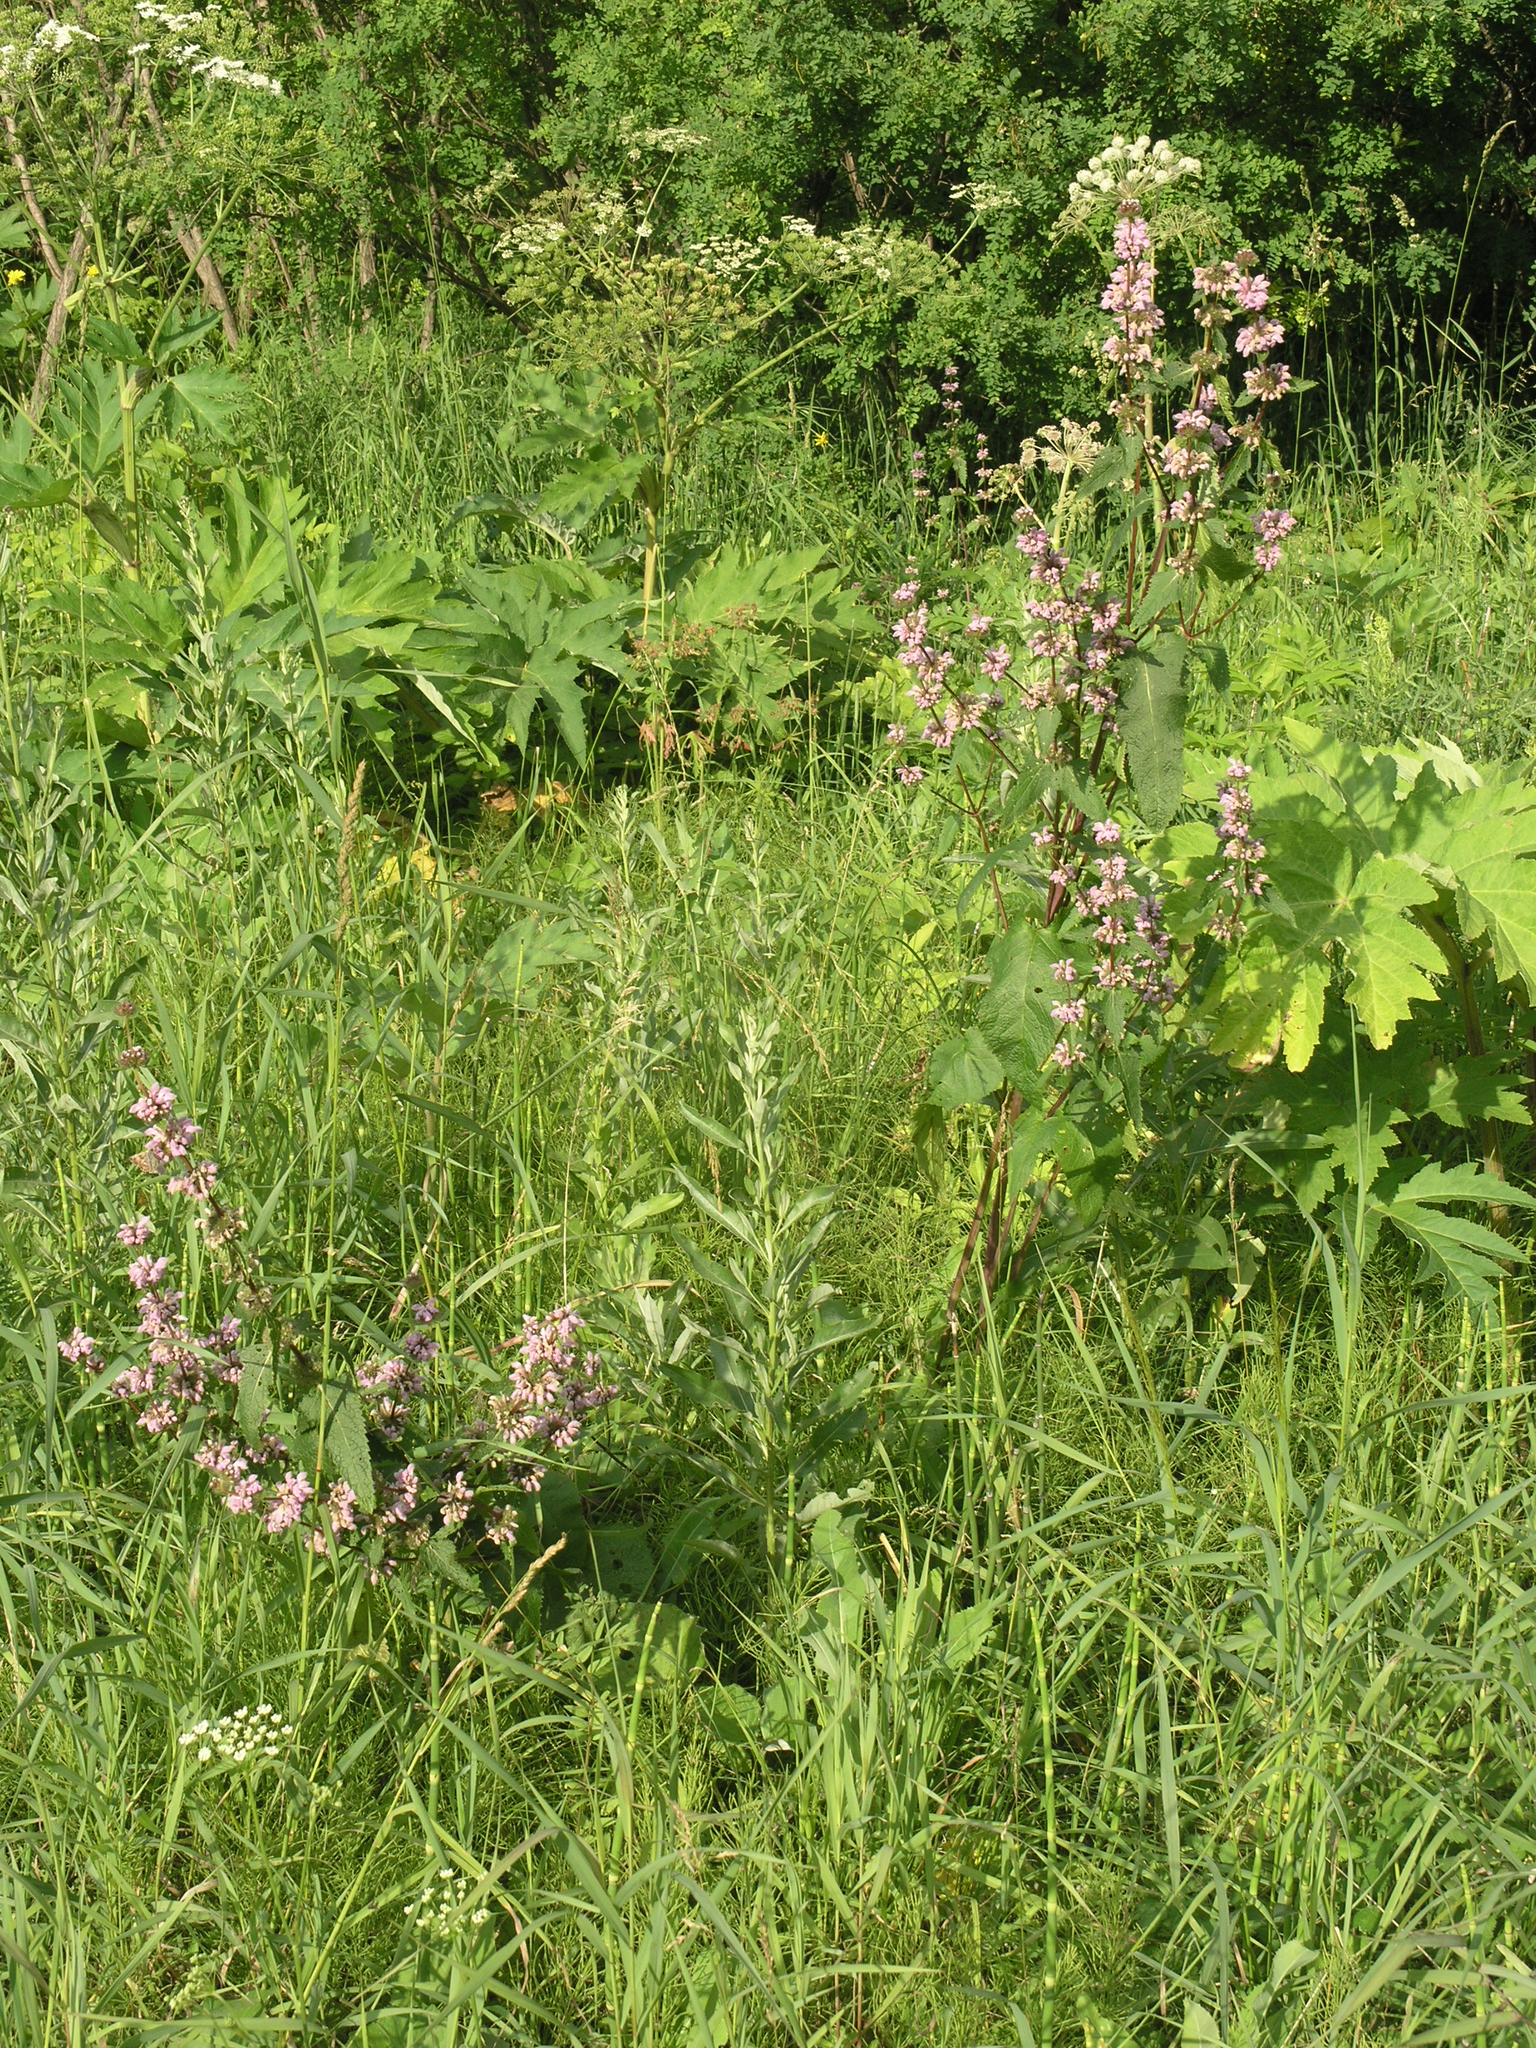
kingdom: Plantae
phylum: Tracheophyta
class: Magnoliopsida
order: Lamiales
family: Lamiaceae
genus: Phlomoides
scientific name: Phlomoides tuberosa
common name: Tuberous jerusalem sage
